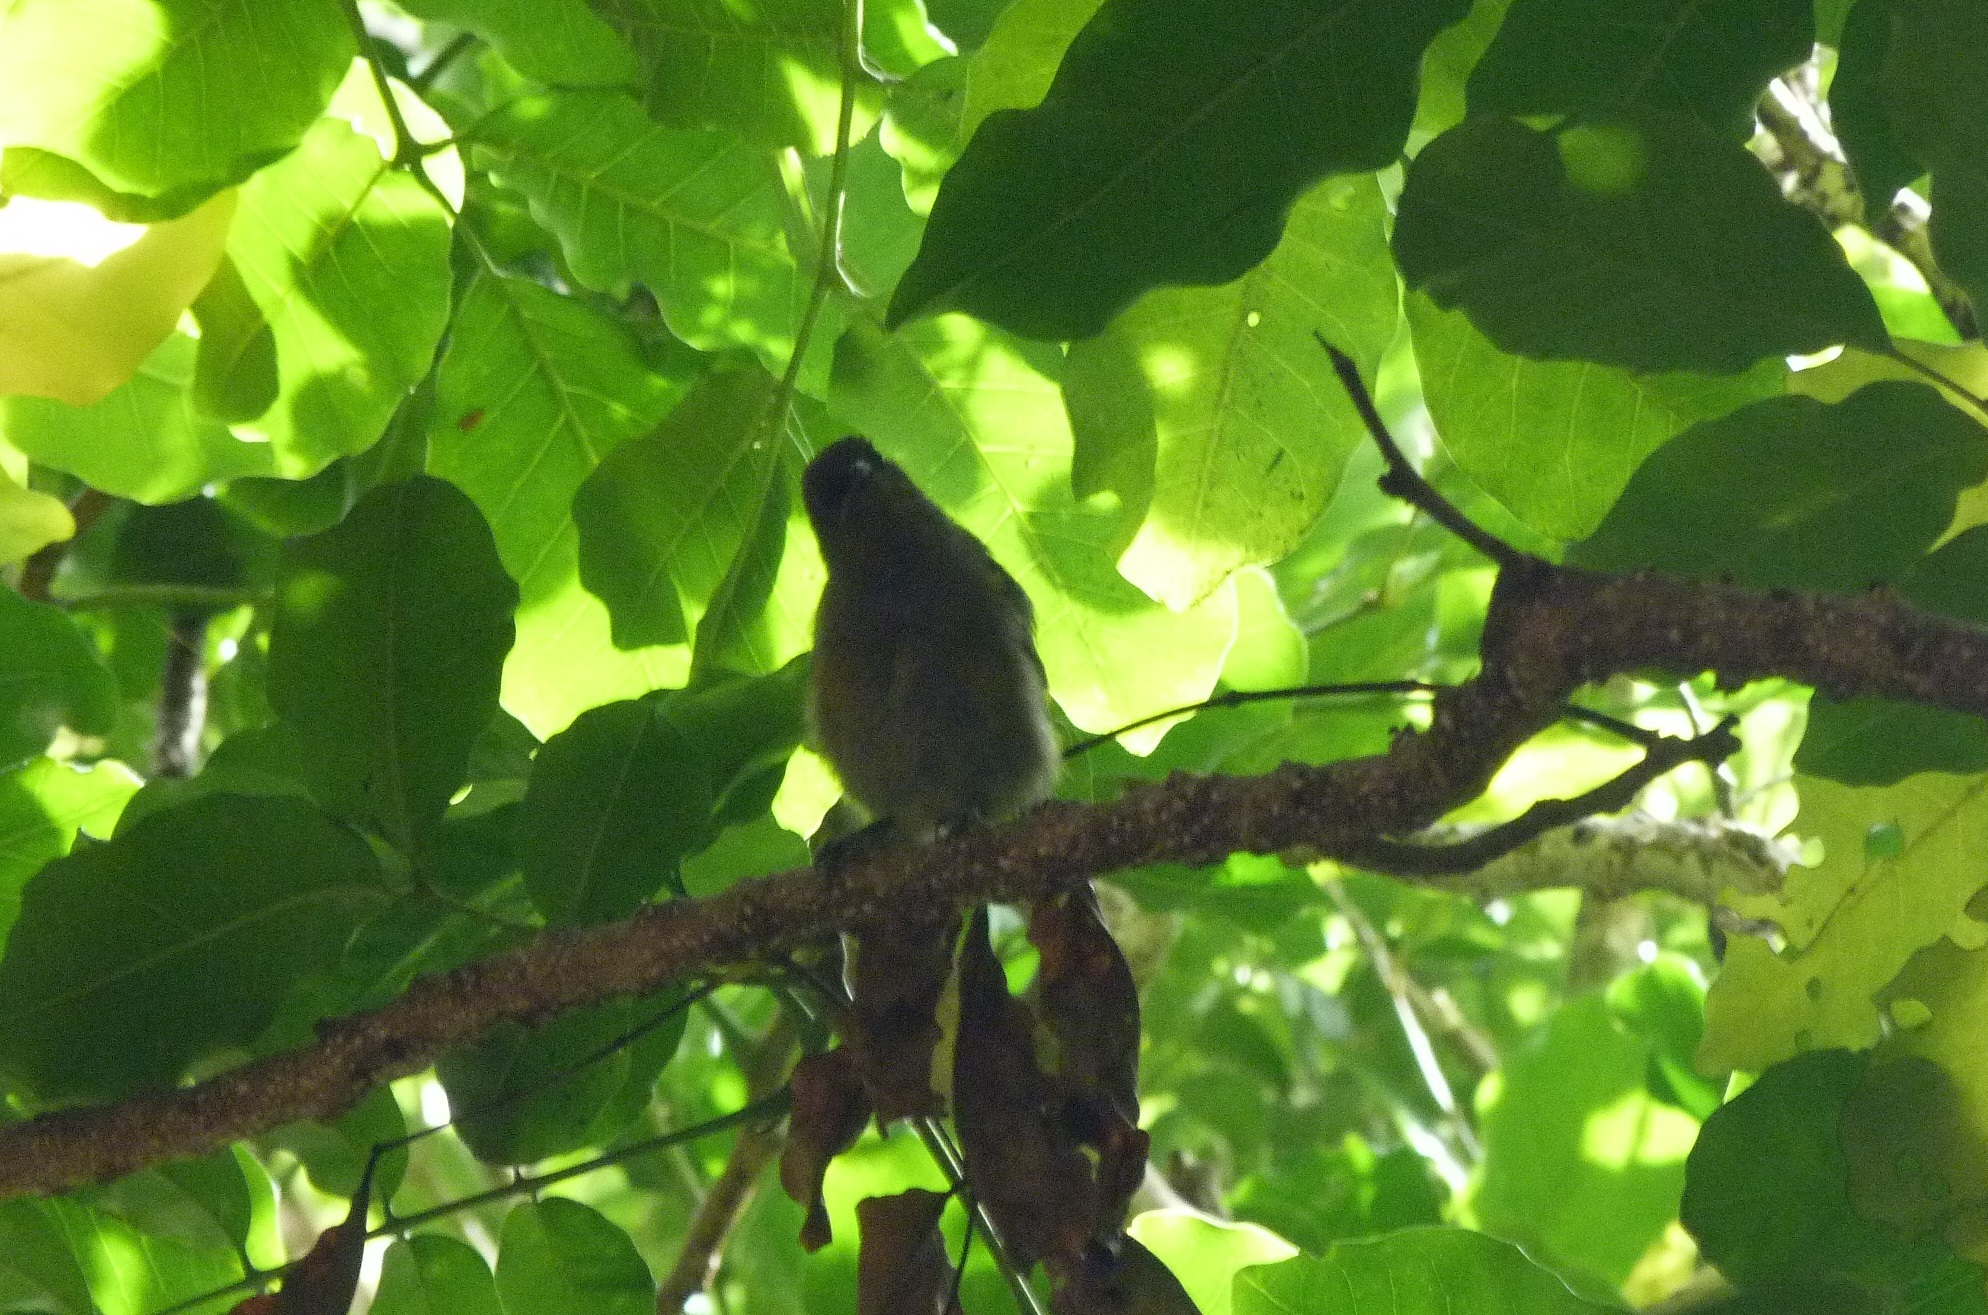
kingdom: Animalia
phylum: Chordata
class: Aves
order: Passeriformes
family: Meliphagidae
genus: Anthornis
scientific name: Anthornis melanura
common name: New zealand bellbird
